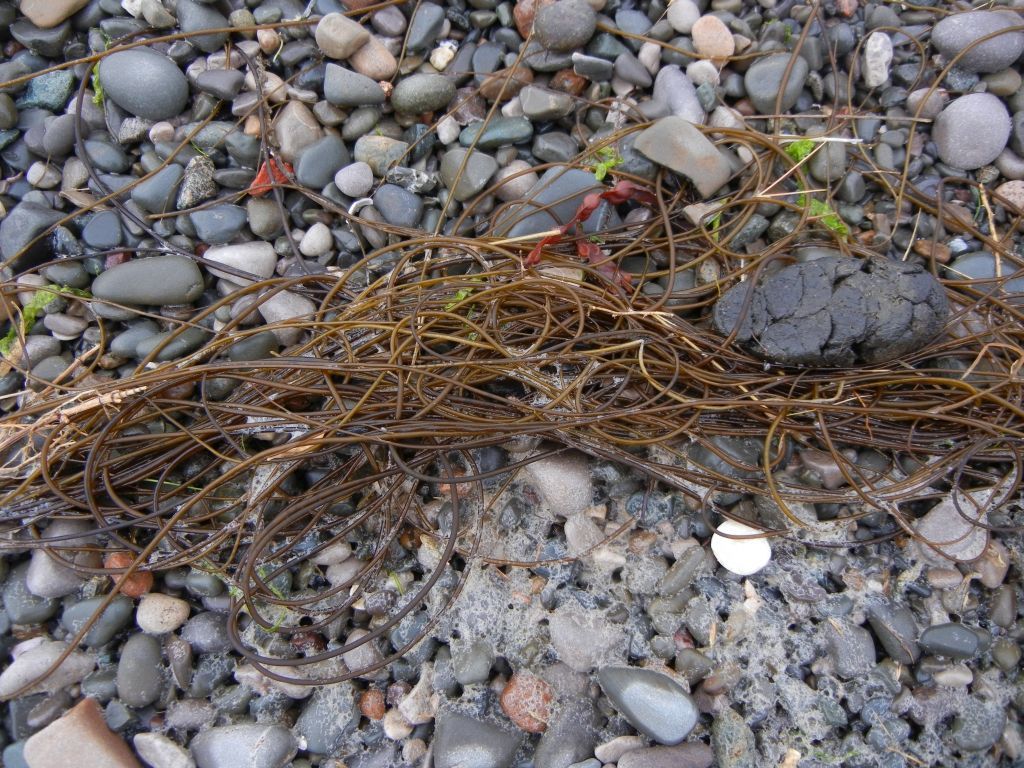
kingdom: Chromista
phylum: Ochrophyta
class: Phaeophyceae
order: Laminariales
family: Chordaceae
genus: Chorda
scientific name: Chorda filum
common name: Mermaid's tresses
